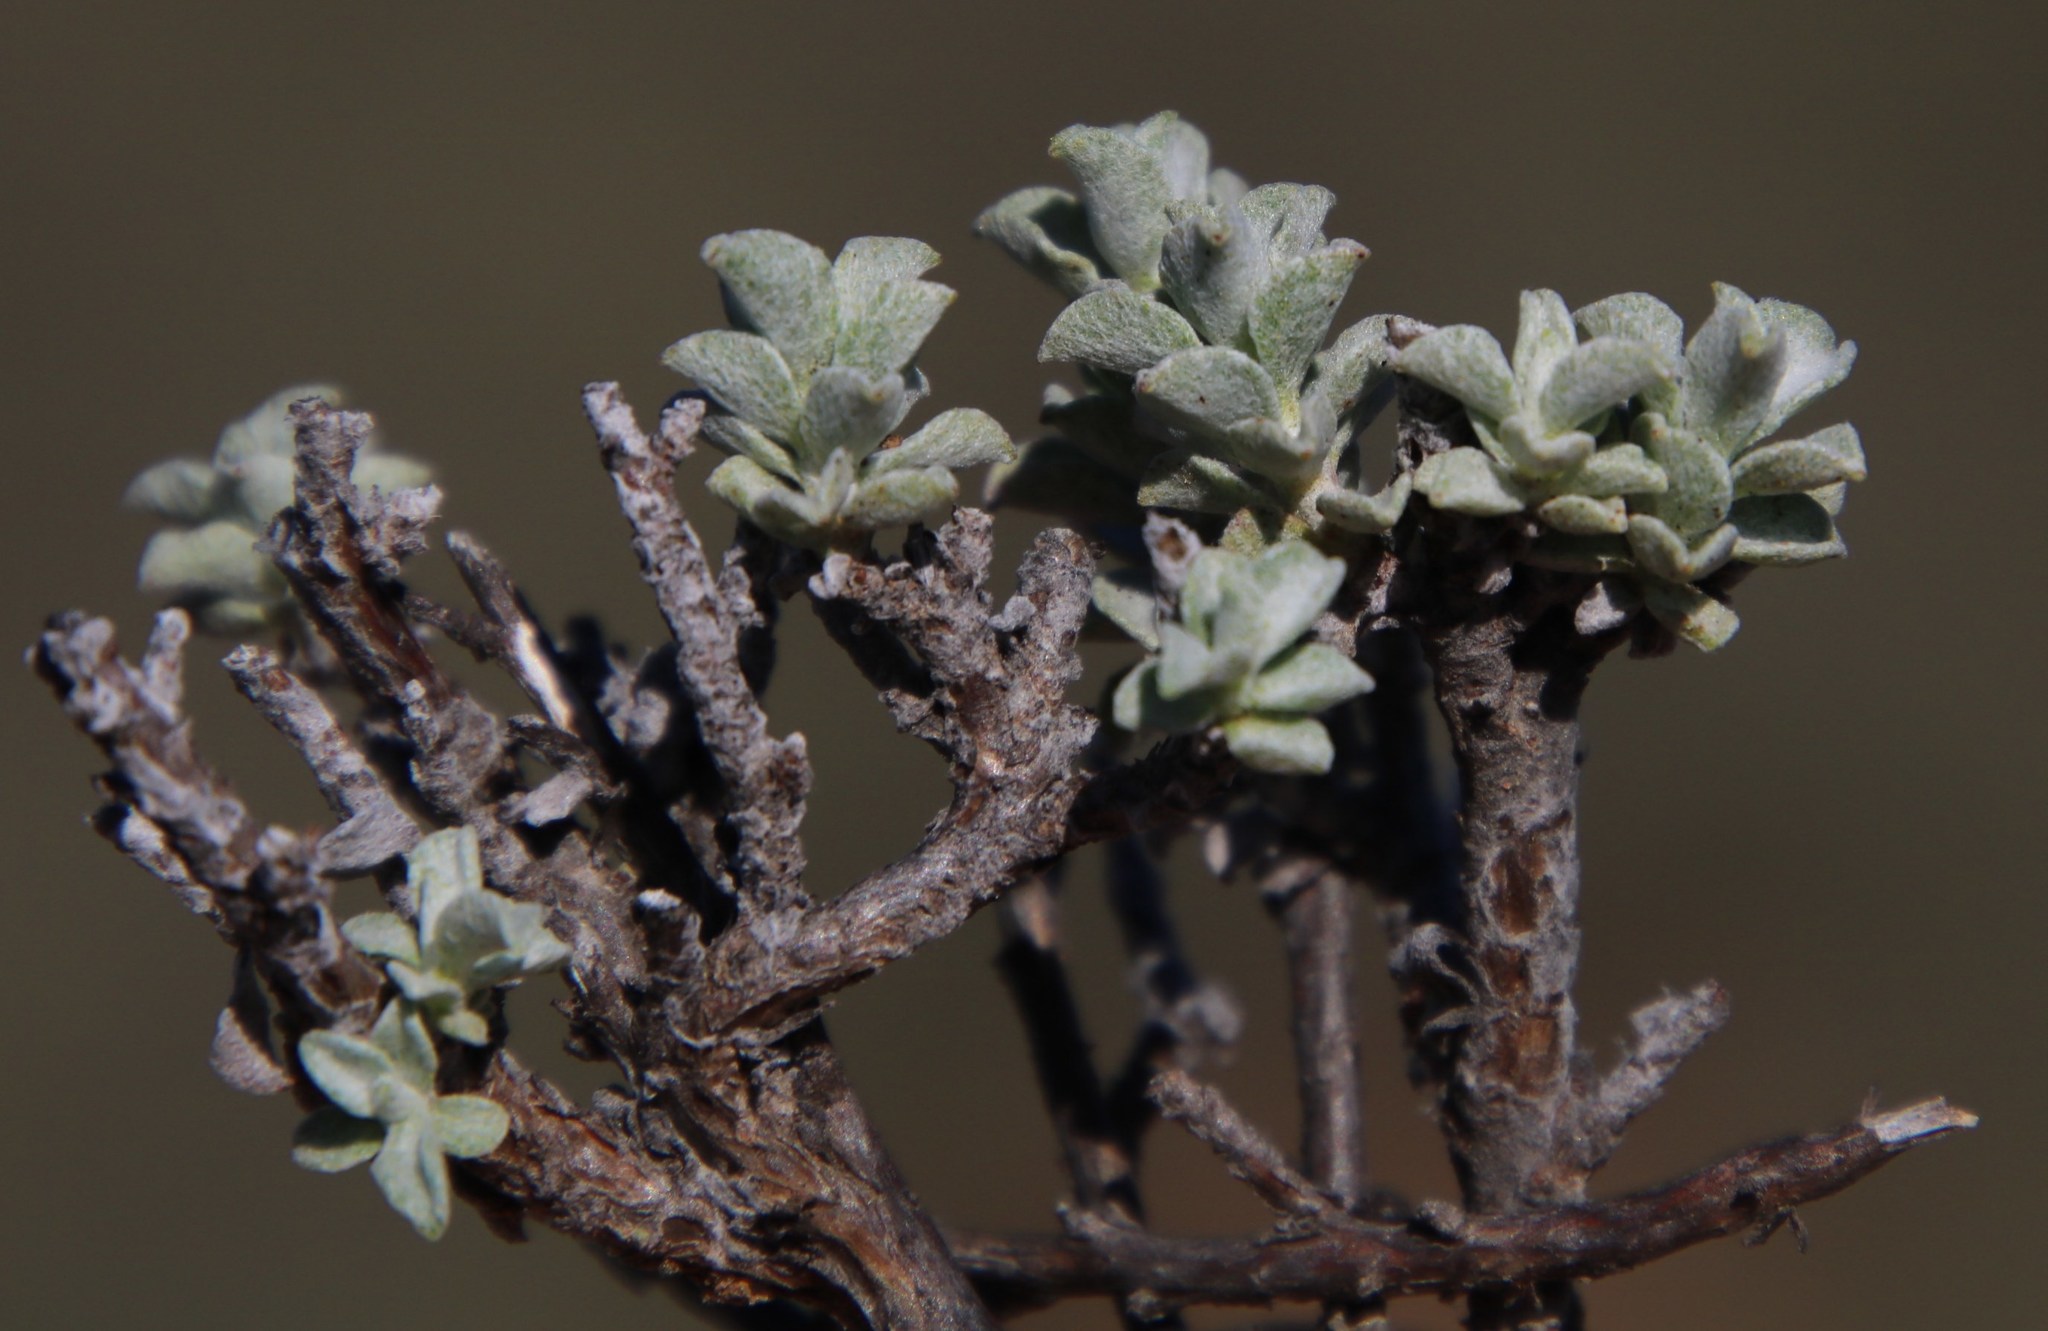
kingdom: Plantae
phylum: Tracheophyta
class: Magnoliopsida
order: Asterales
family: Asteraceae
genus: Helichrysum
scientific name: Helichrysum lucilioides
